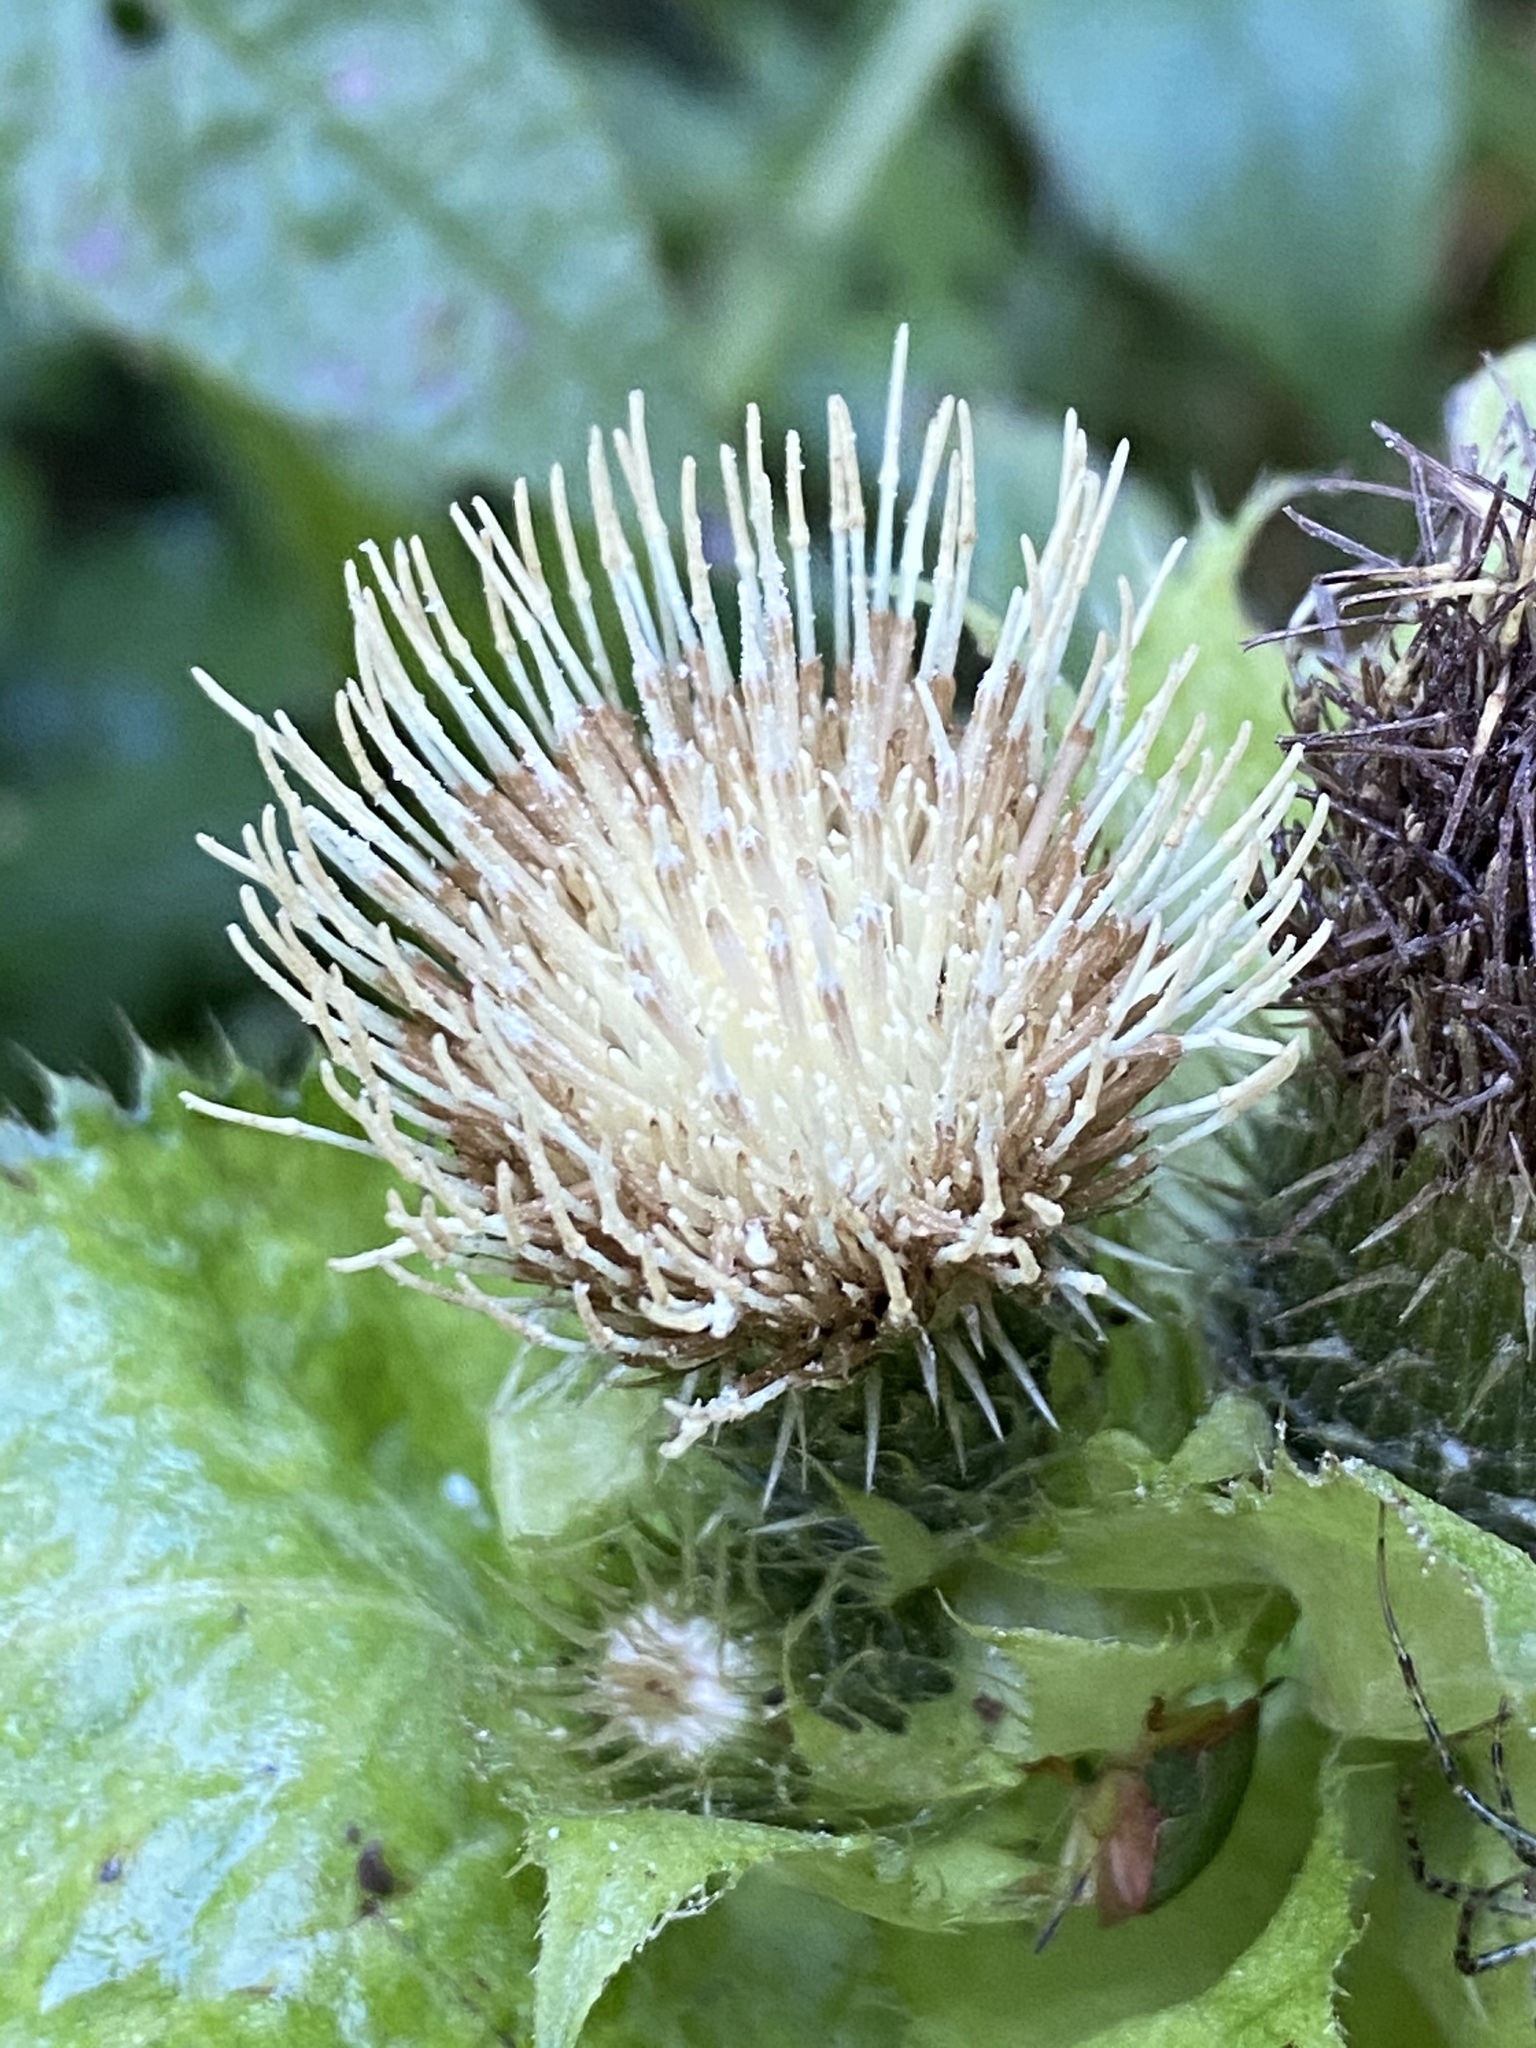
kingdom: Plantae
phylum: Tracheophyta
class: Magnoliopsida
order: Asterales
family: Asteraceae
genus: Cirsium
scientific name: Cirsium oleraceum
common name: Cabbage thistle
